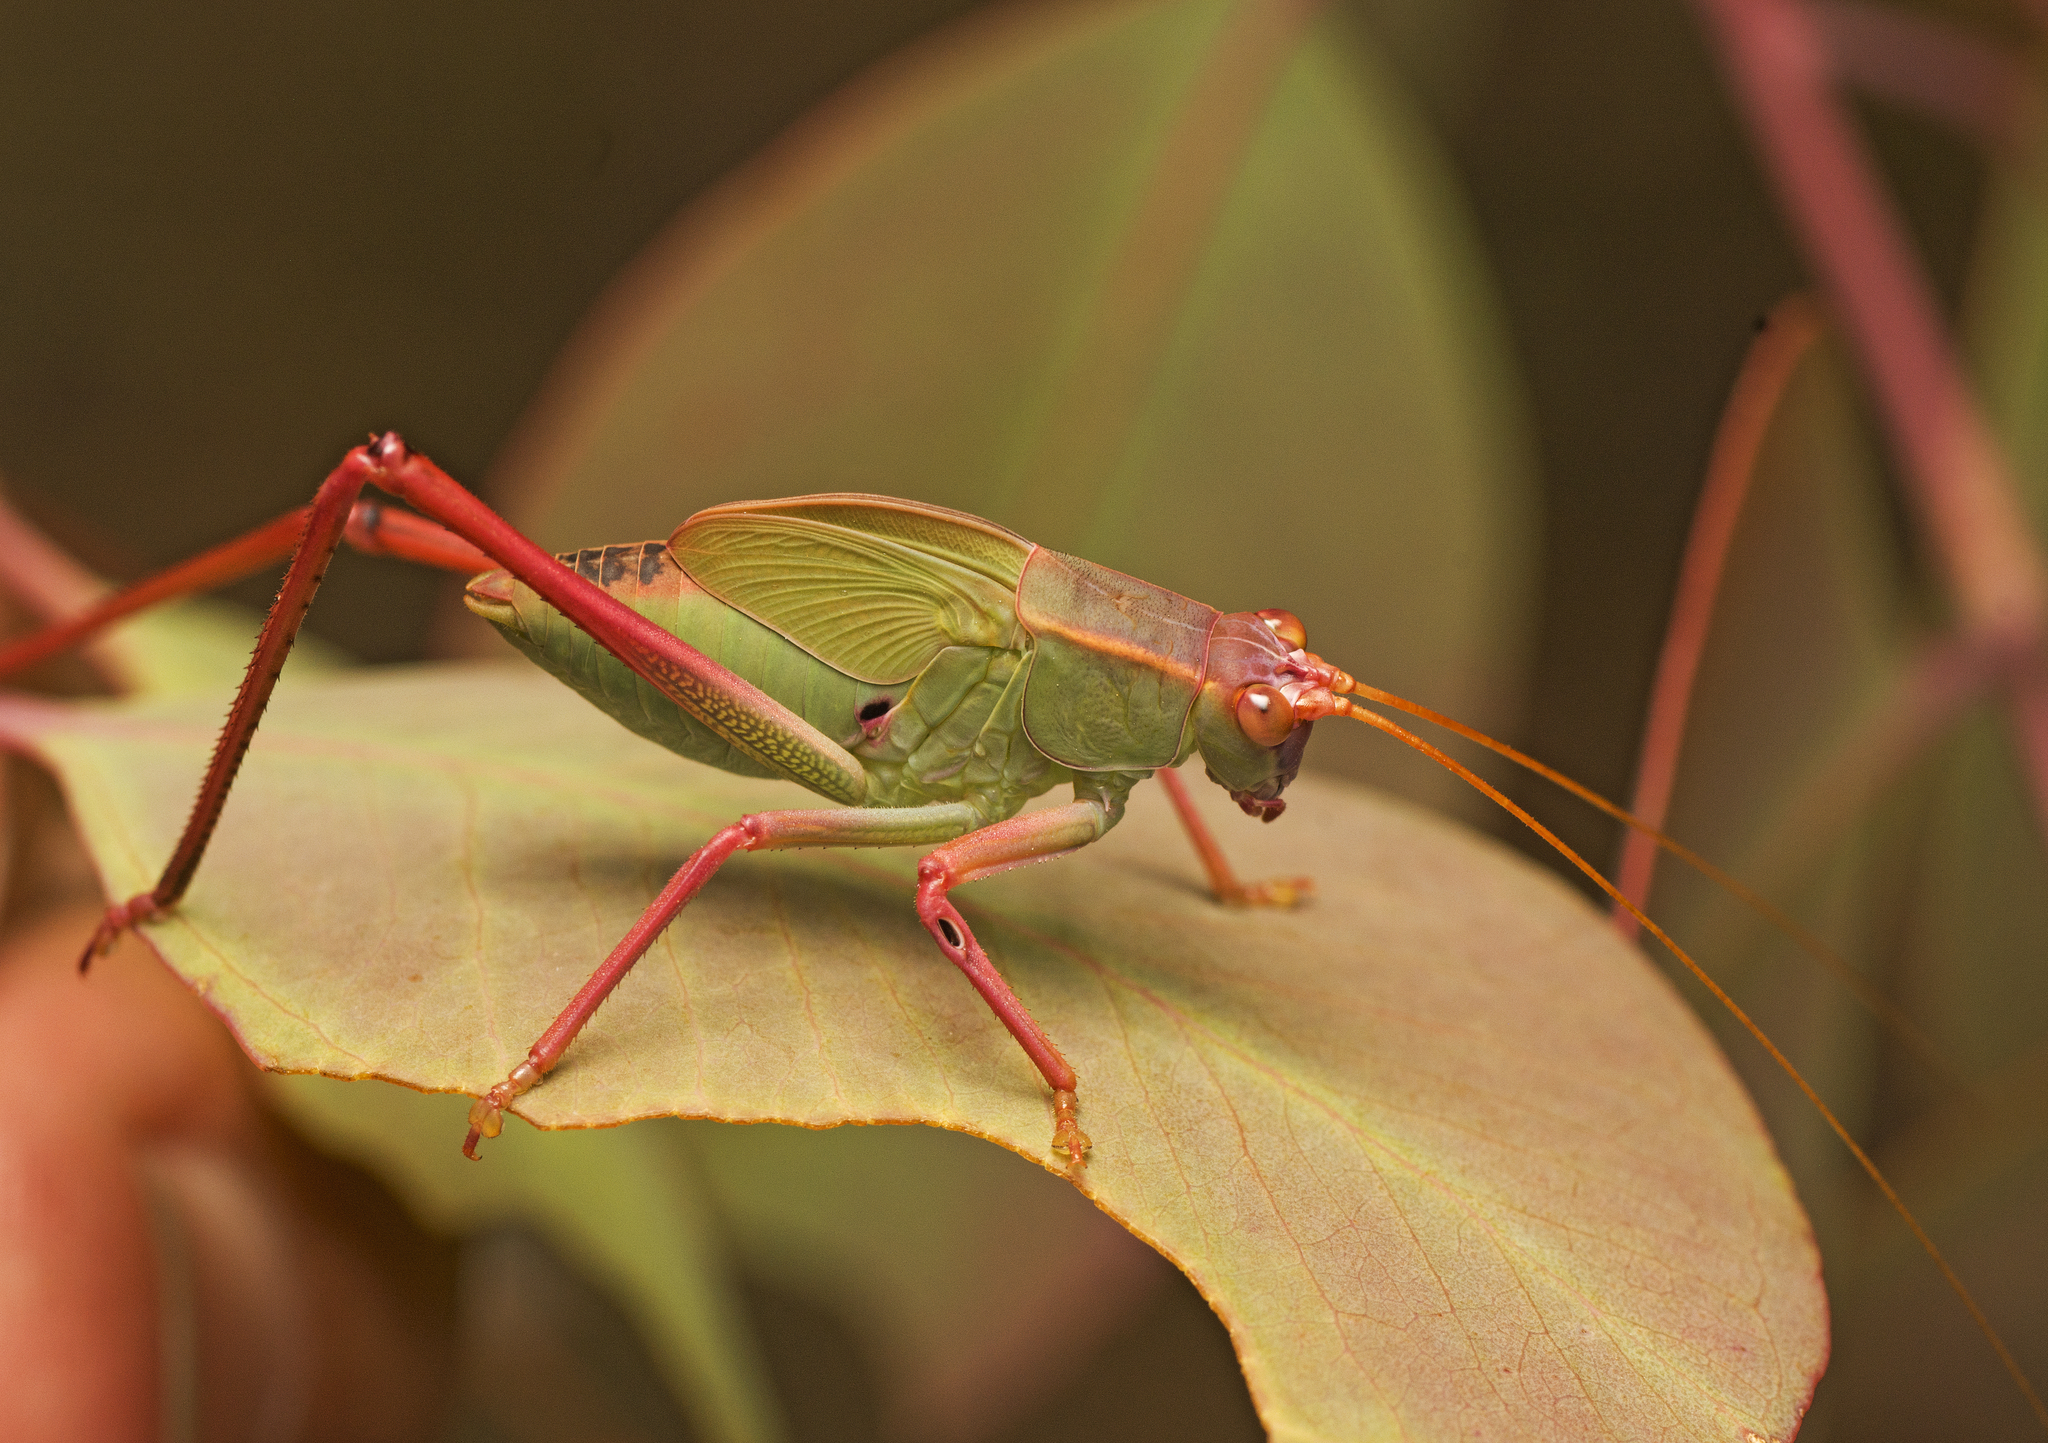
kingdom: Animalia
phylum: Arthropoda
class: Insecta
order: Orthoptera
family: Tettigoniidae
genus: Torbia
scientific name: Torbia viridissima
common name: Non-predaceous gum leaf katydid
